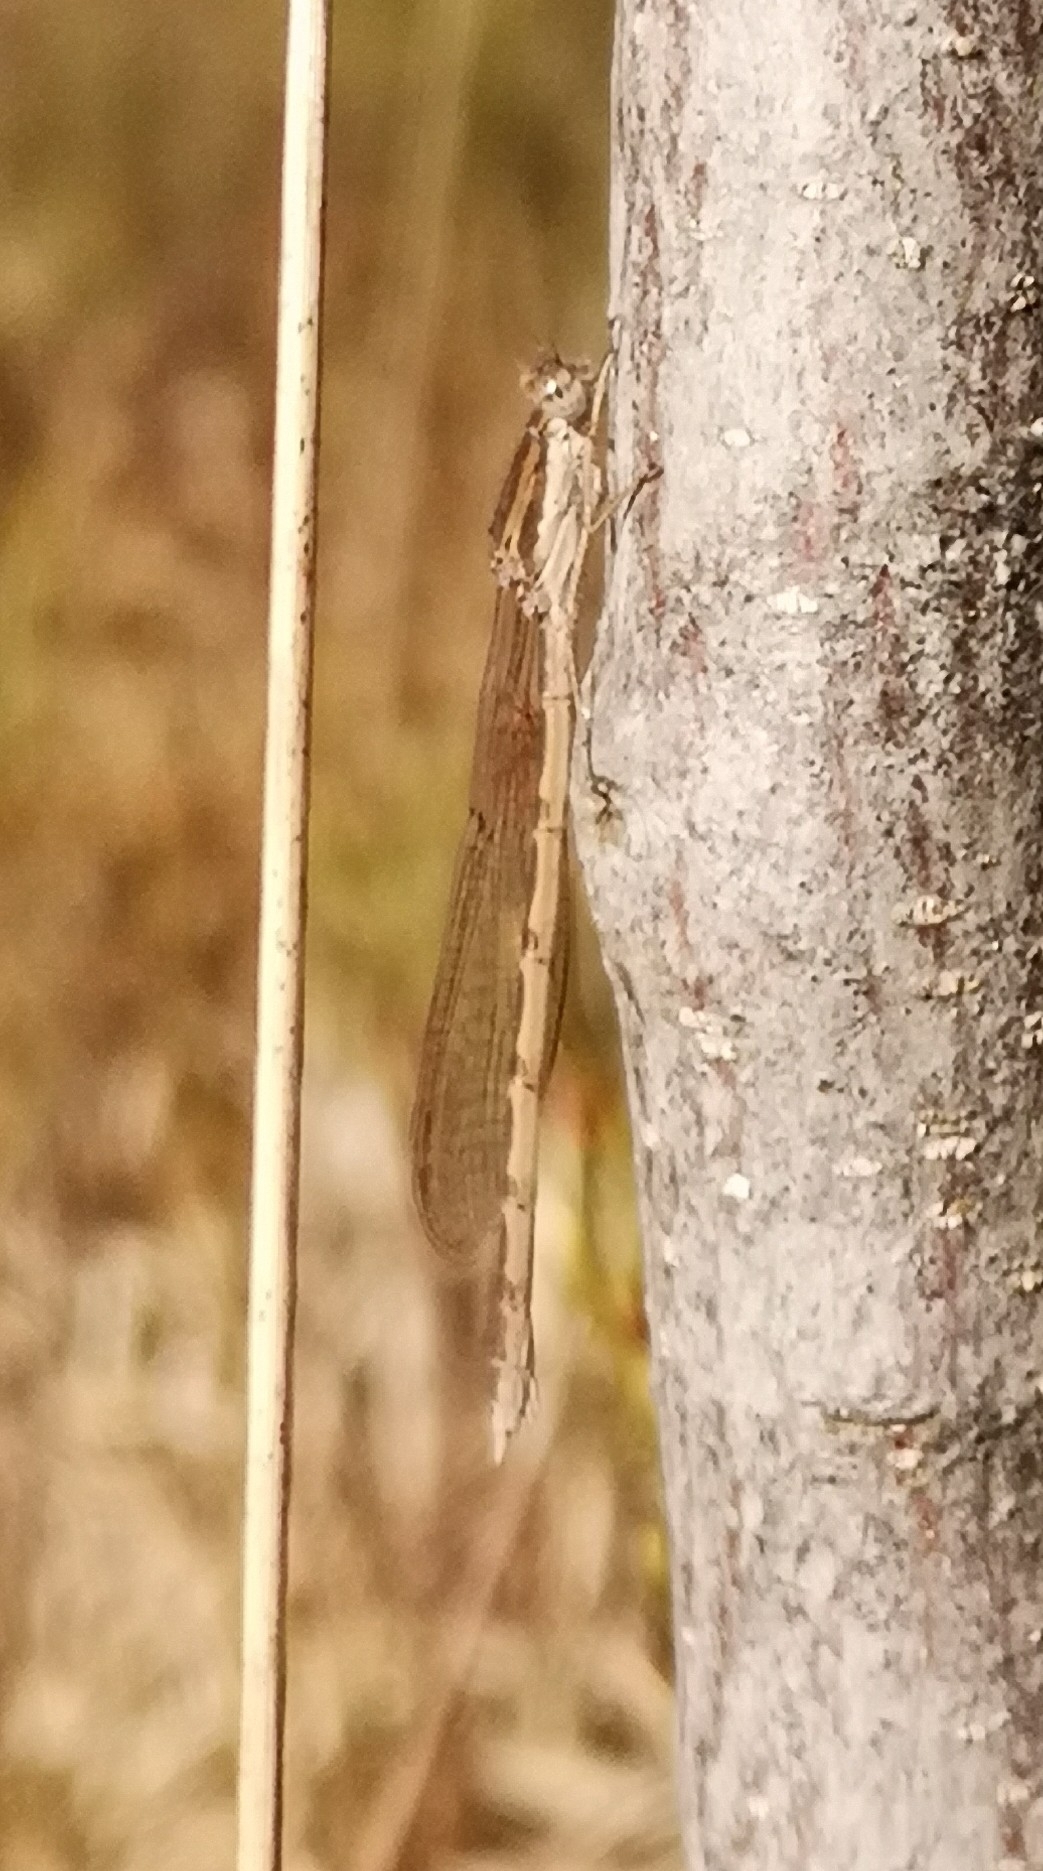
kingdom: Animalia
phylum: Arthropoda
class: Insecta
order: Odonata
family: Lestidae
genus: Sympecma
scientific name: Sympecma fusca
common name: Common winter damsel
